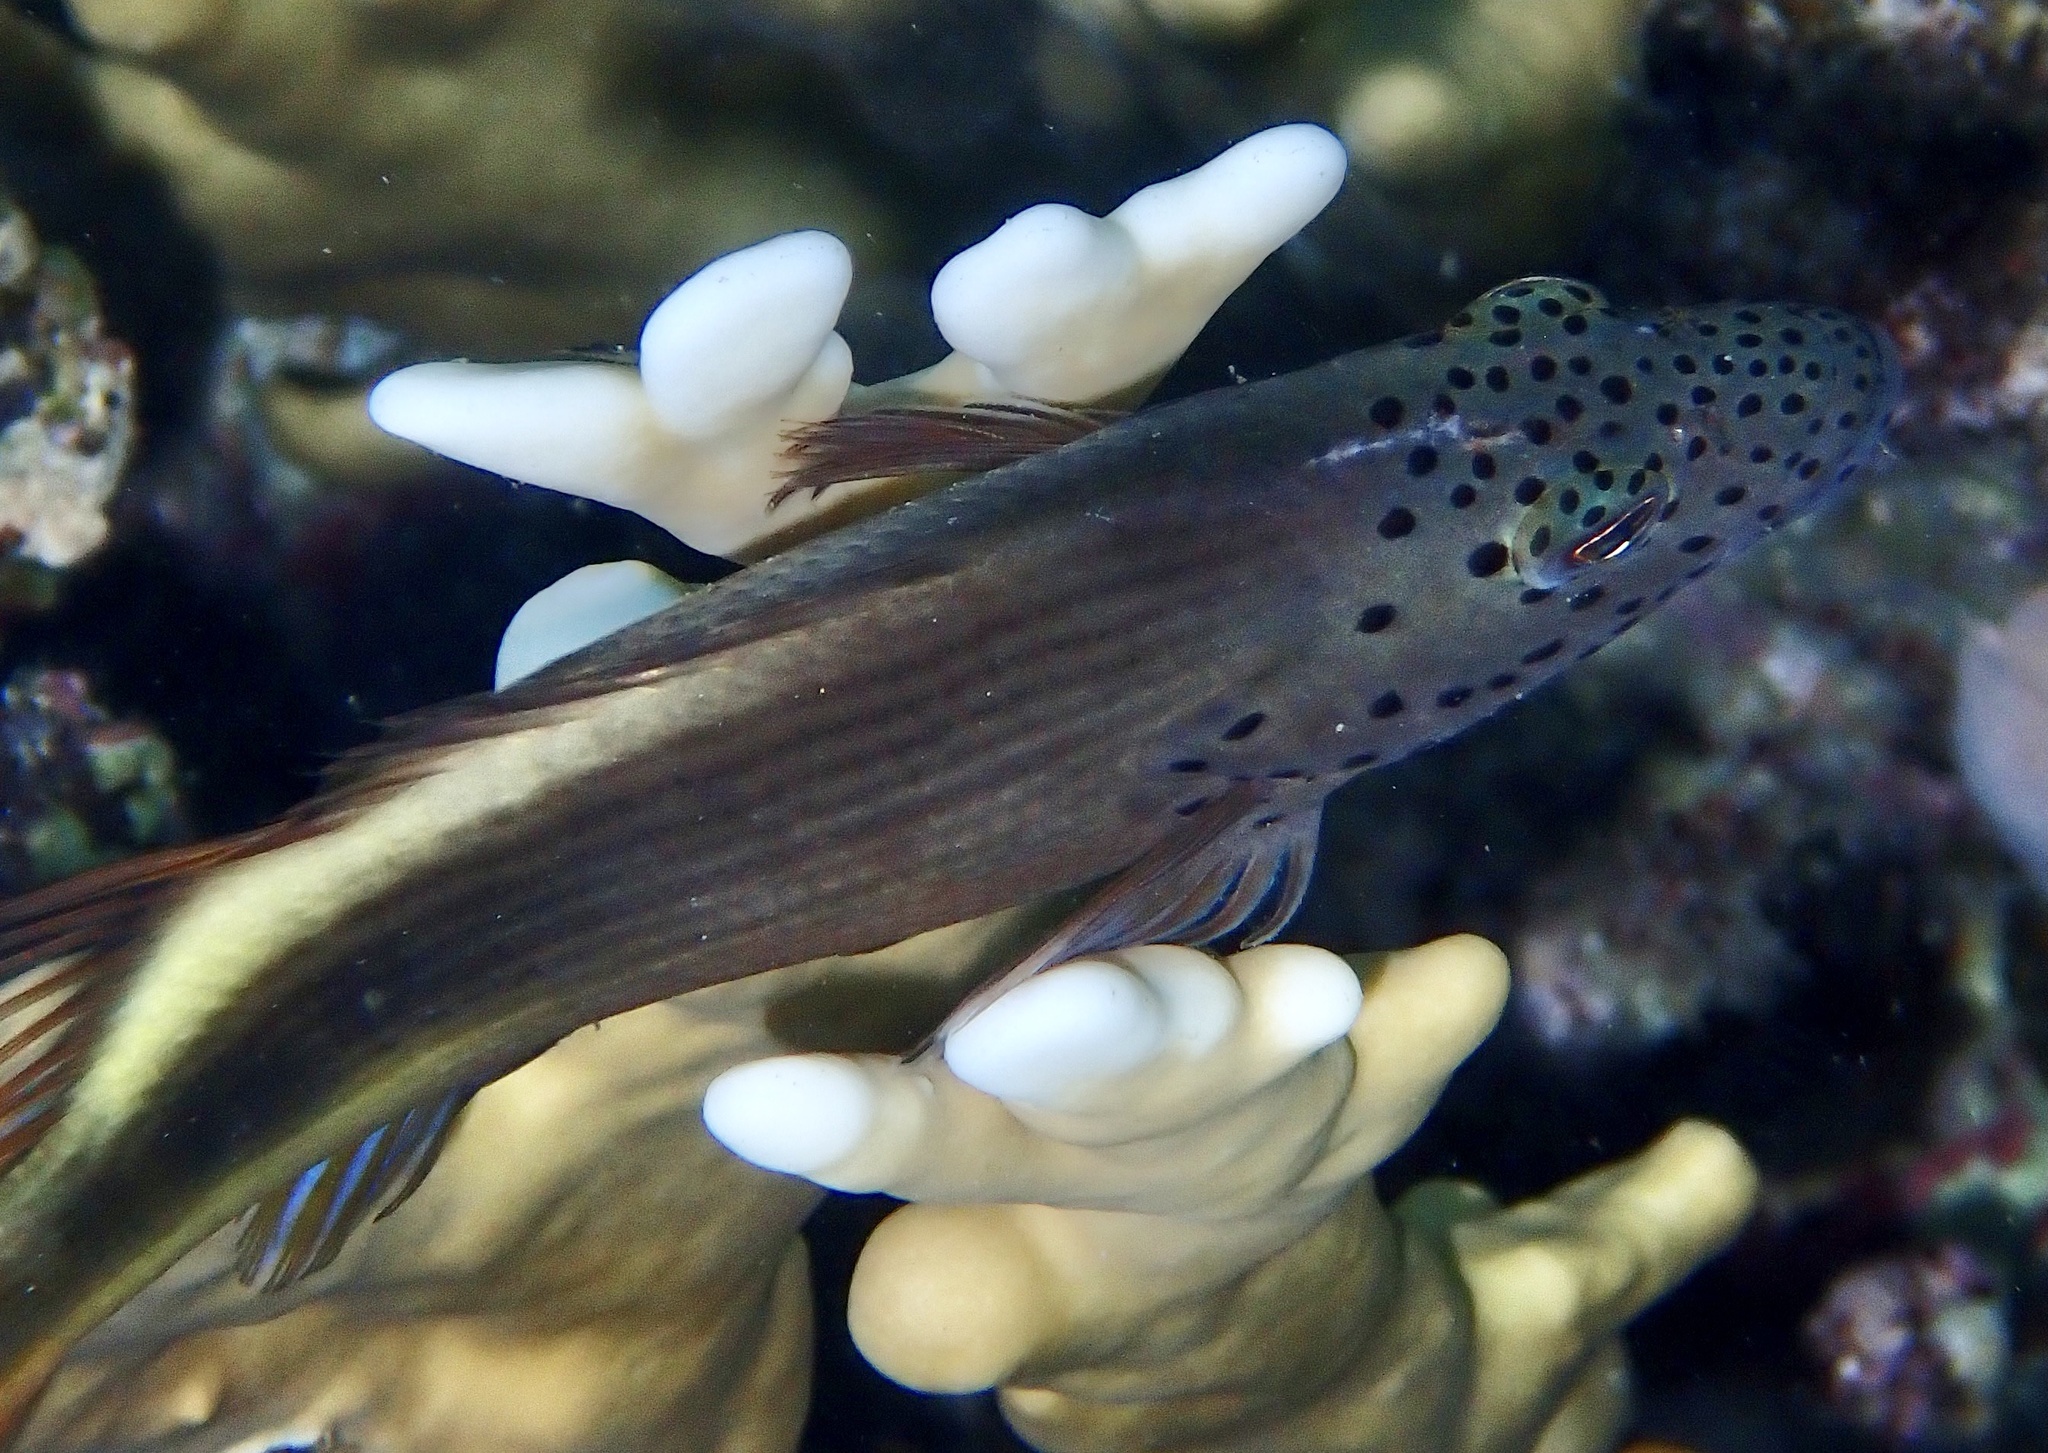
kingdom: Animalia
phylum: Chordata
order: Perciformes
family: Cirrhitidae
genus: Paracirrhites
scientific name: Paracirrhites forsteri
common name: Freckled hawkfish
